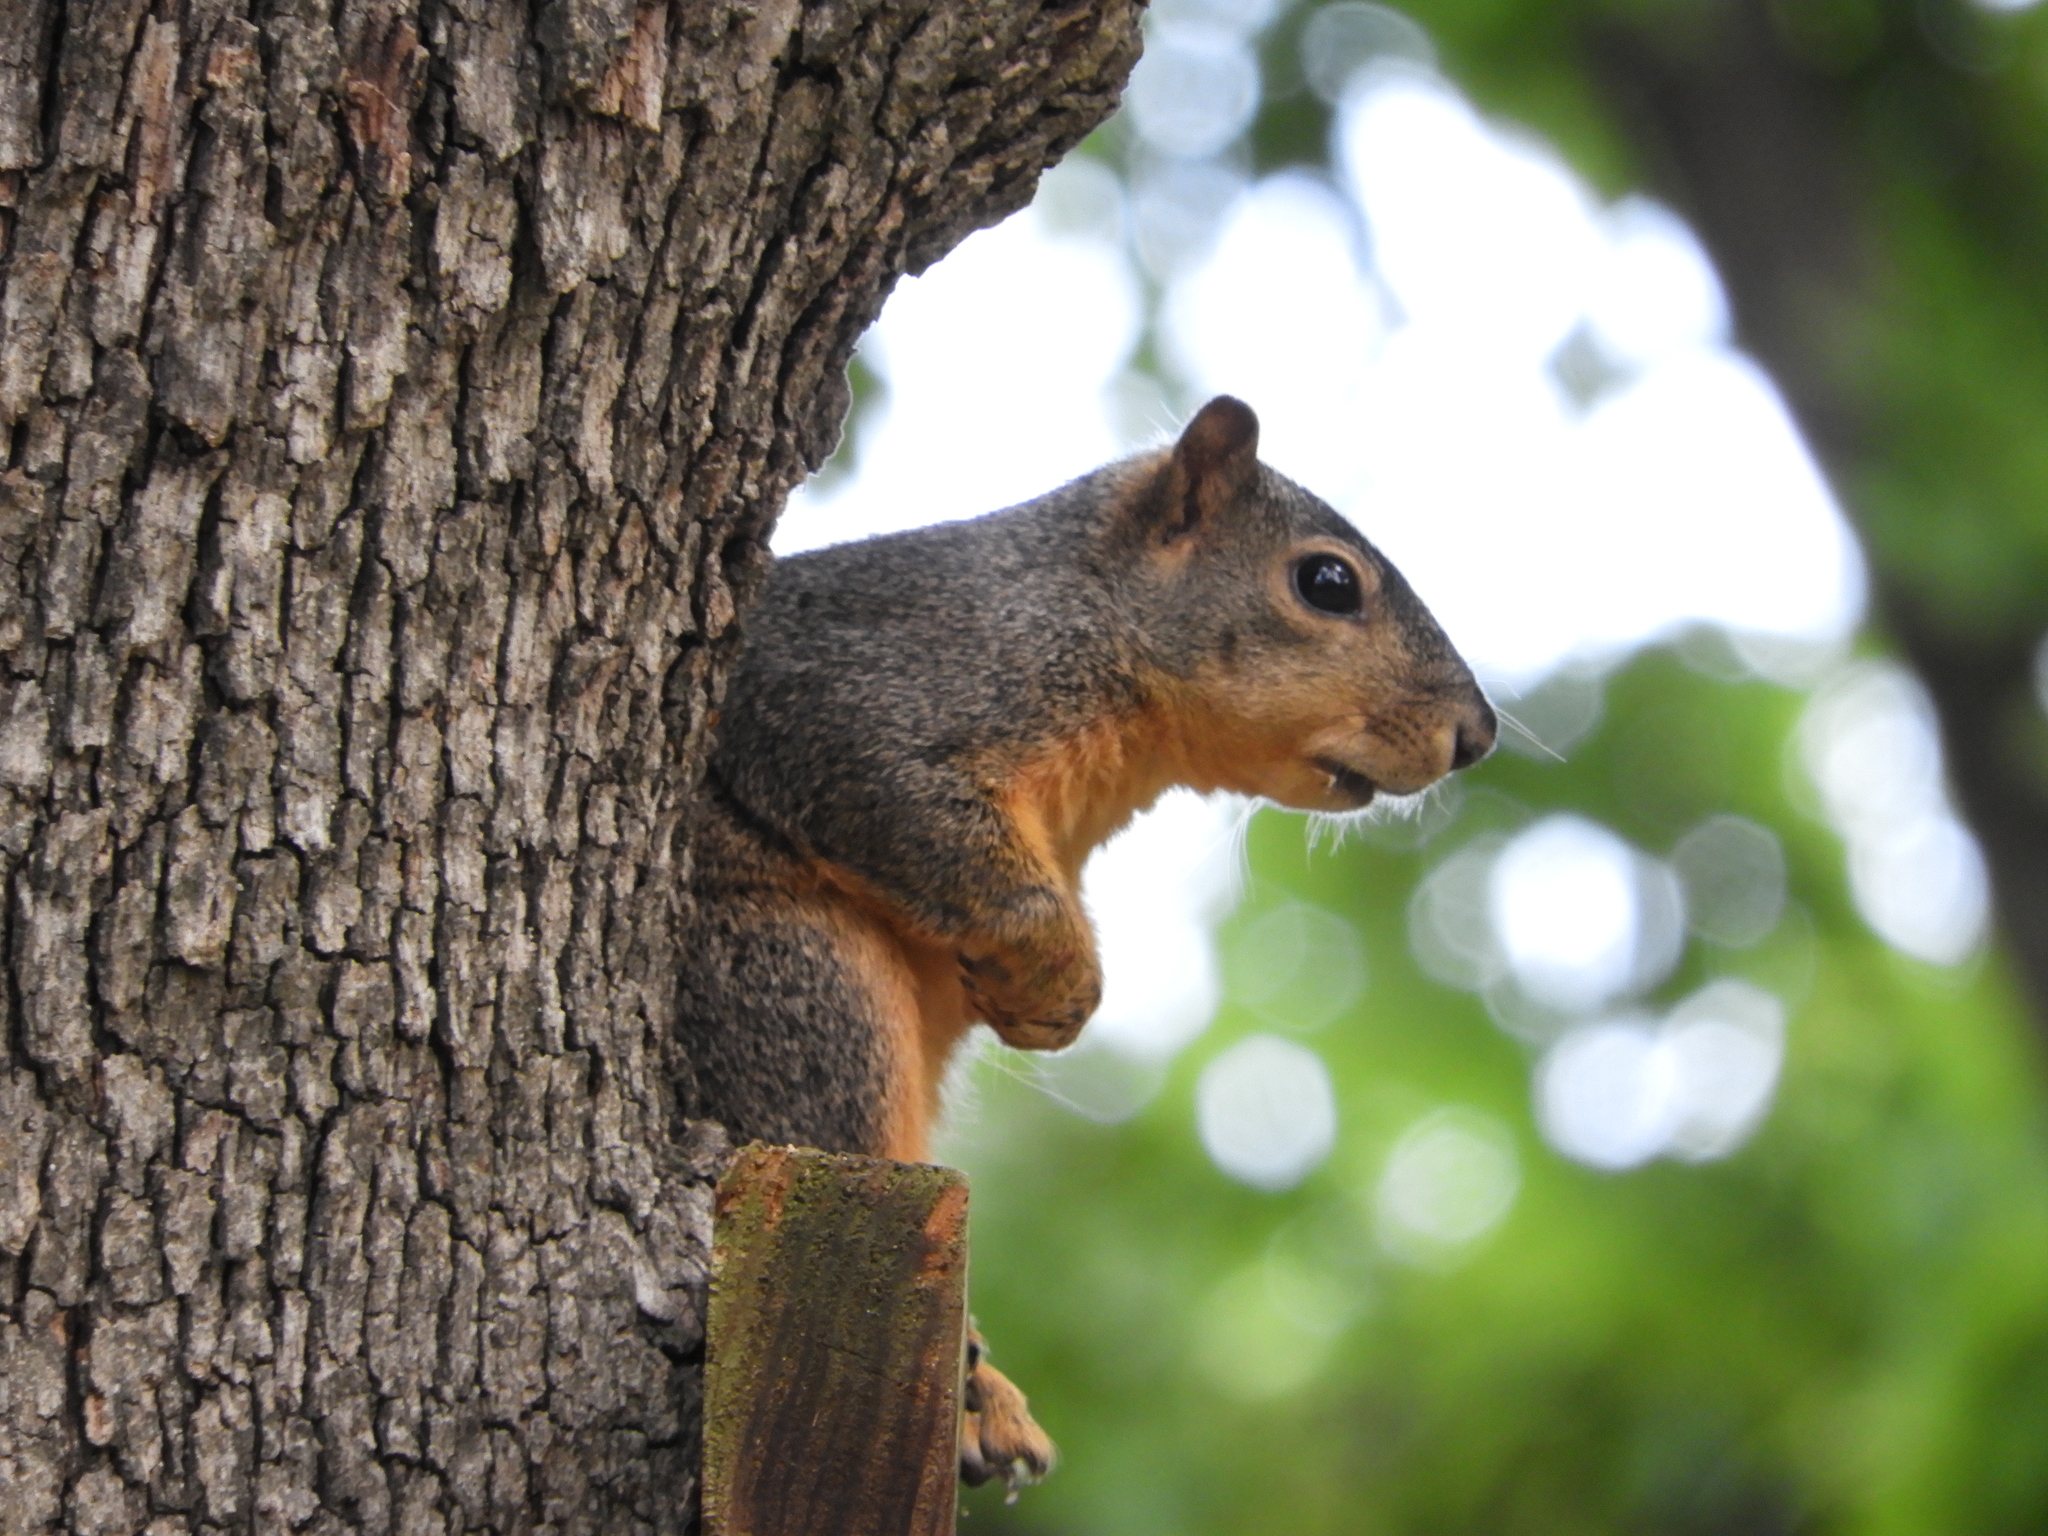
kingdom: Animalia
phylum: Chordata
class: Mammalia
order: Rodentia
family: Sciuridae
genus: Sciurus
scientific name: Sciurus niger
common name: Fox squirrel
